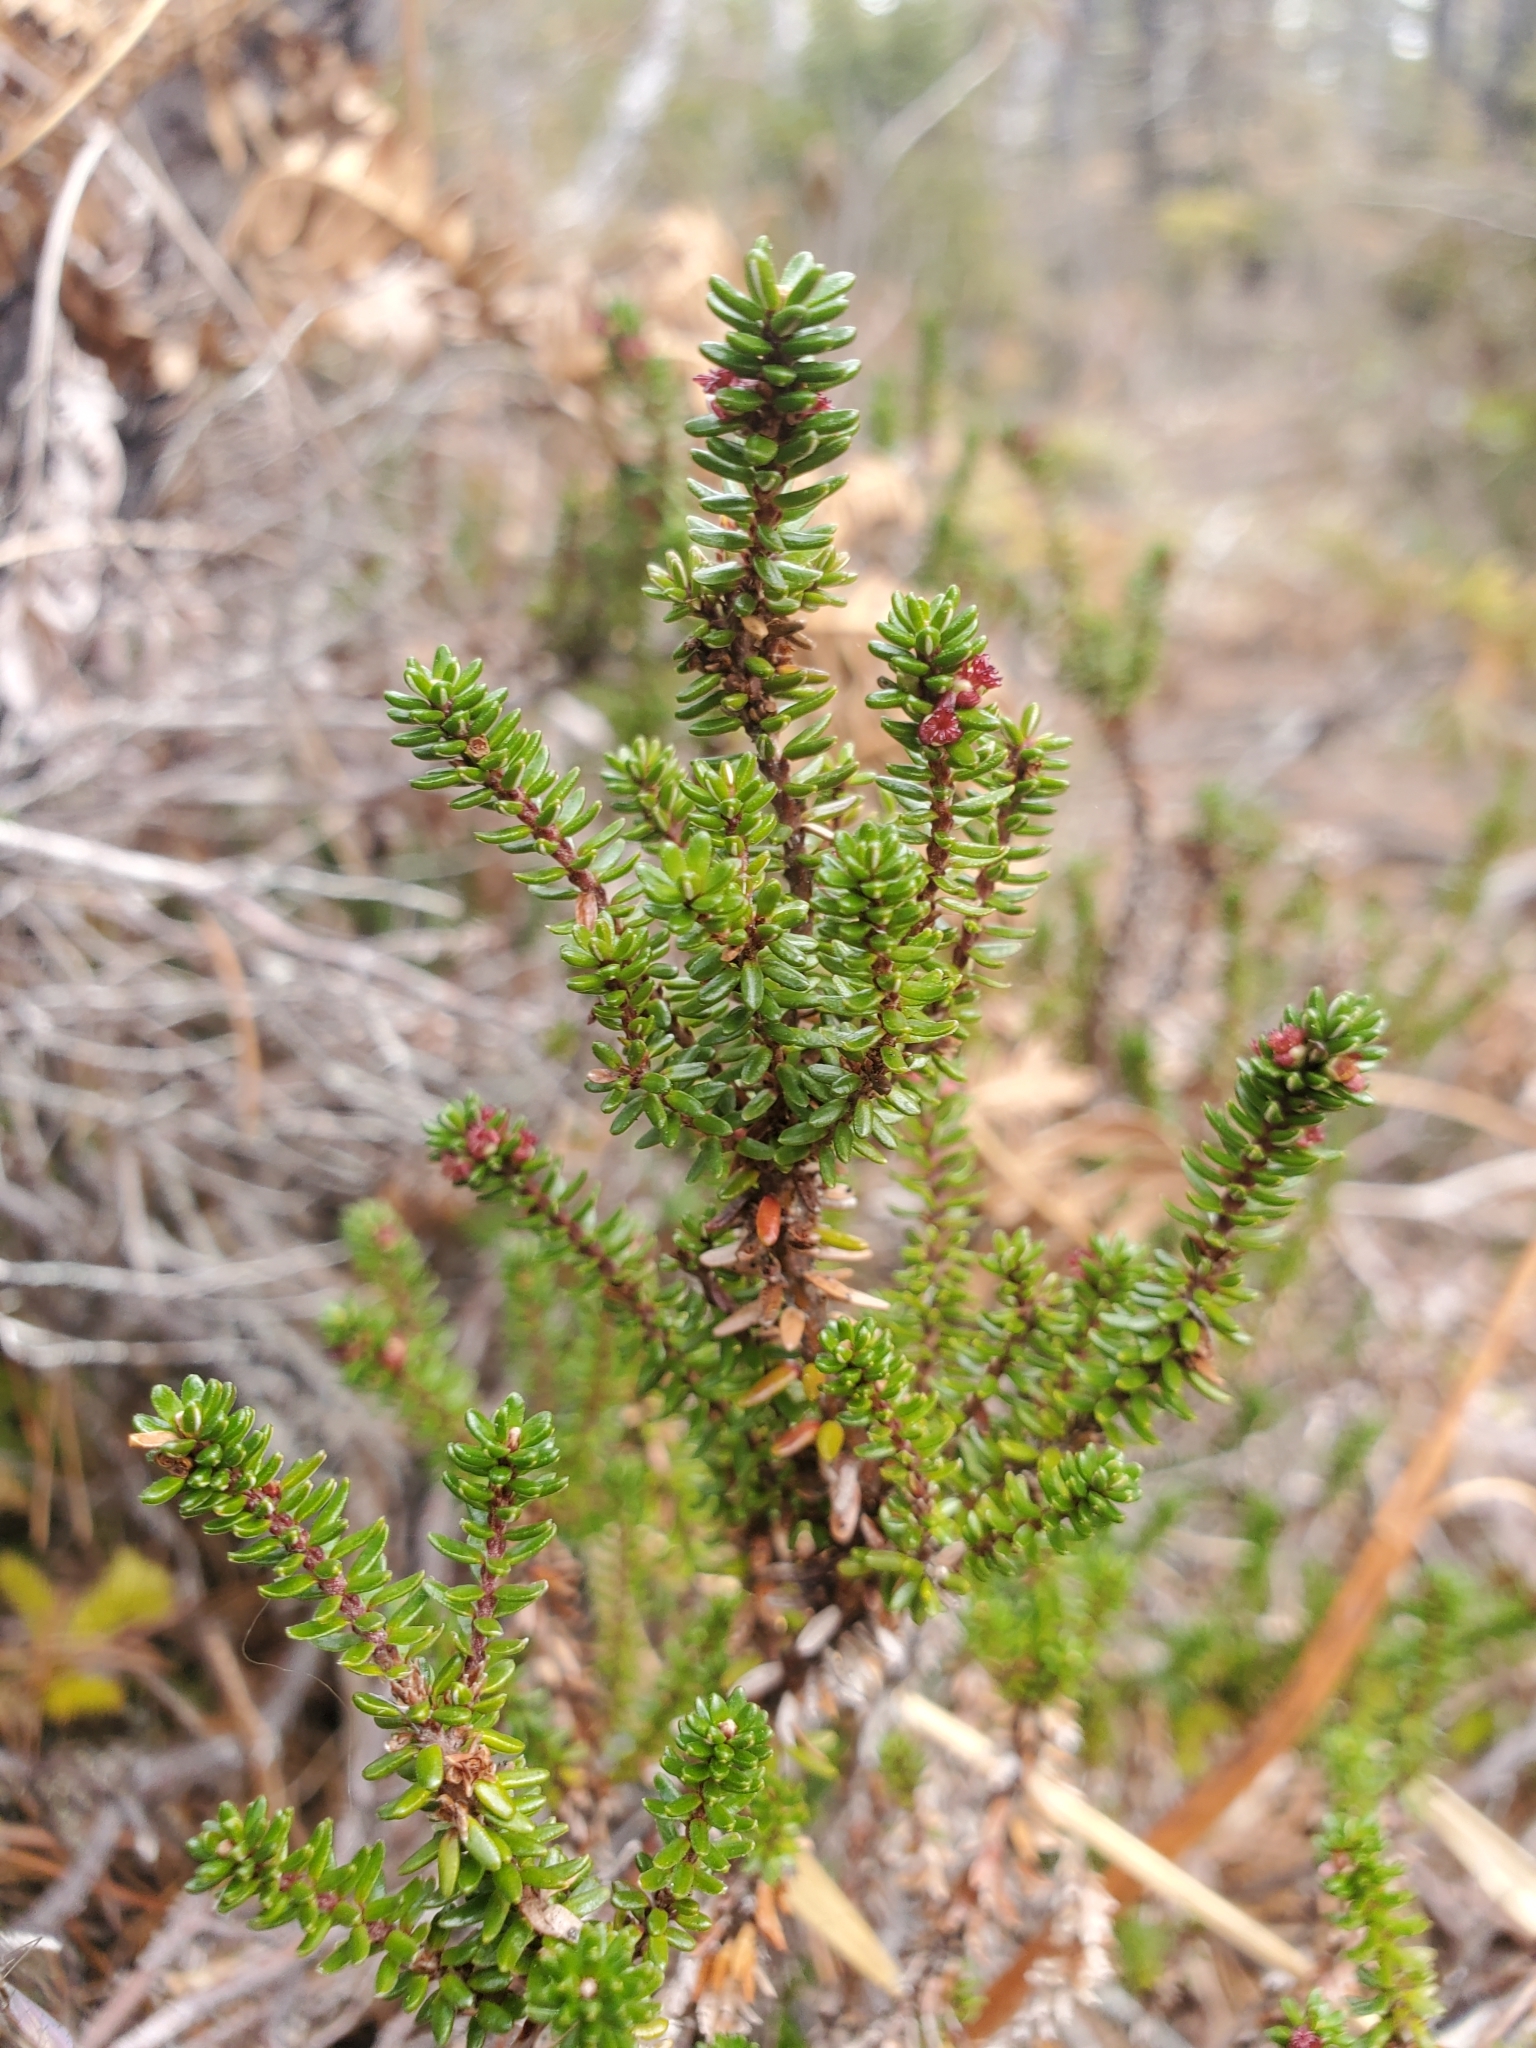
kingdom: Plantae
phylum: Tracheophyta
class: Magnoliopsida
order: Ericales
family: Ericaceae
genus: Empetrum
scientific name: Empetrum nigrum
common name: Black crowberry
